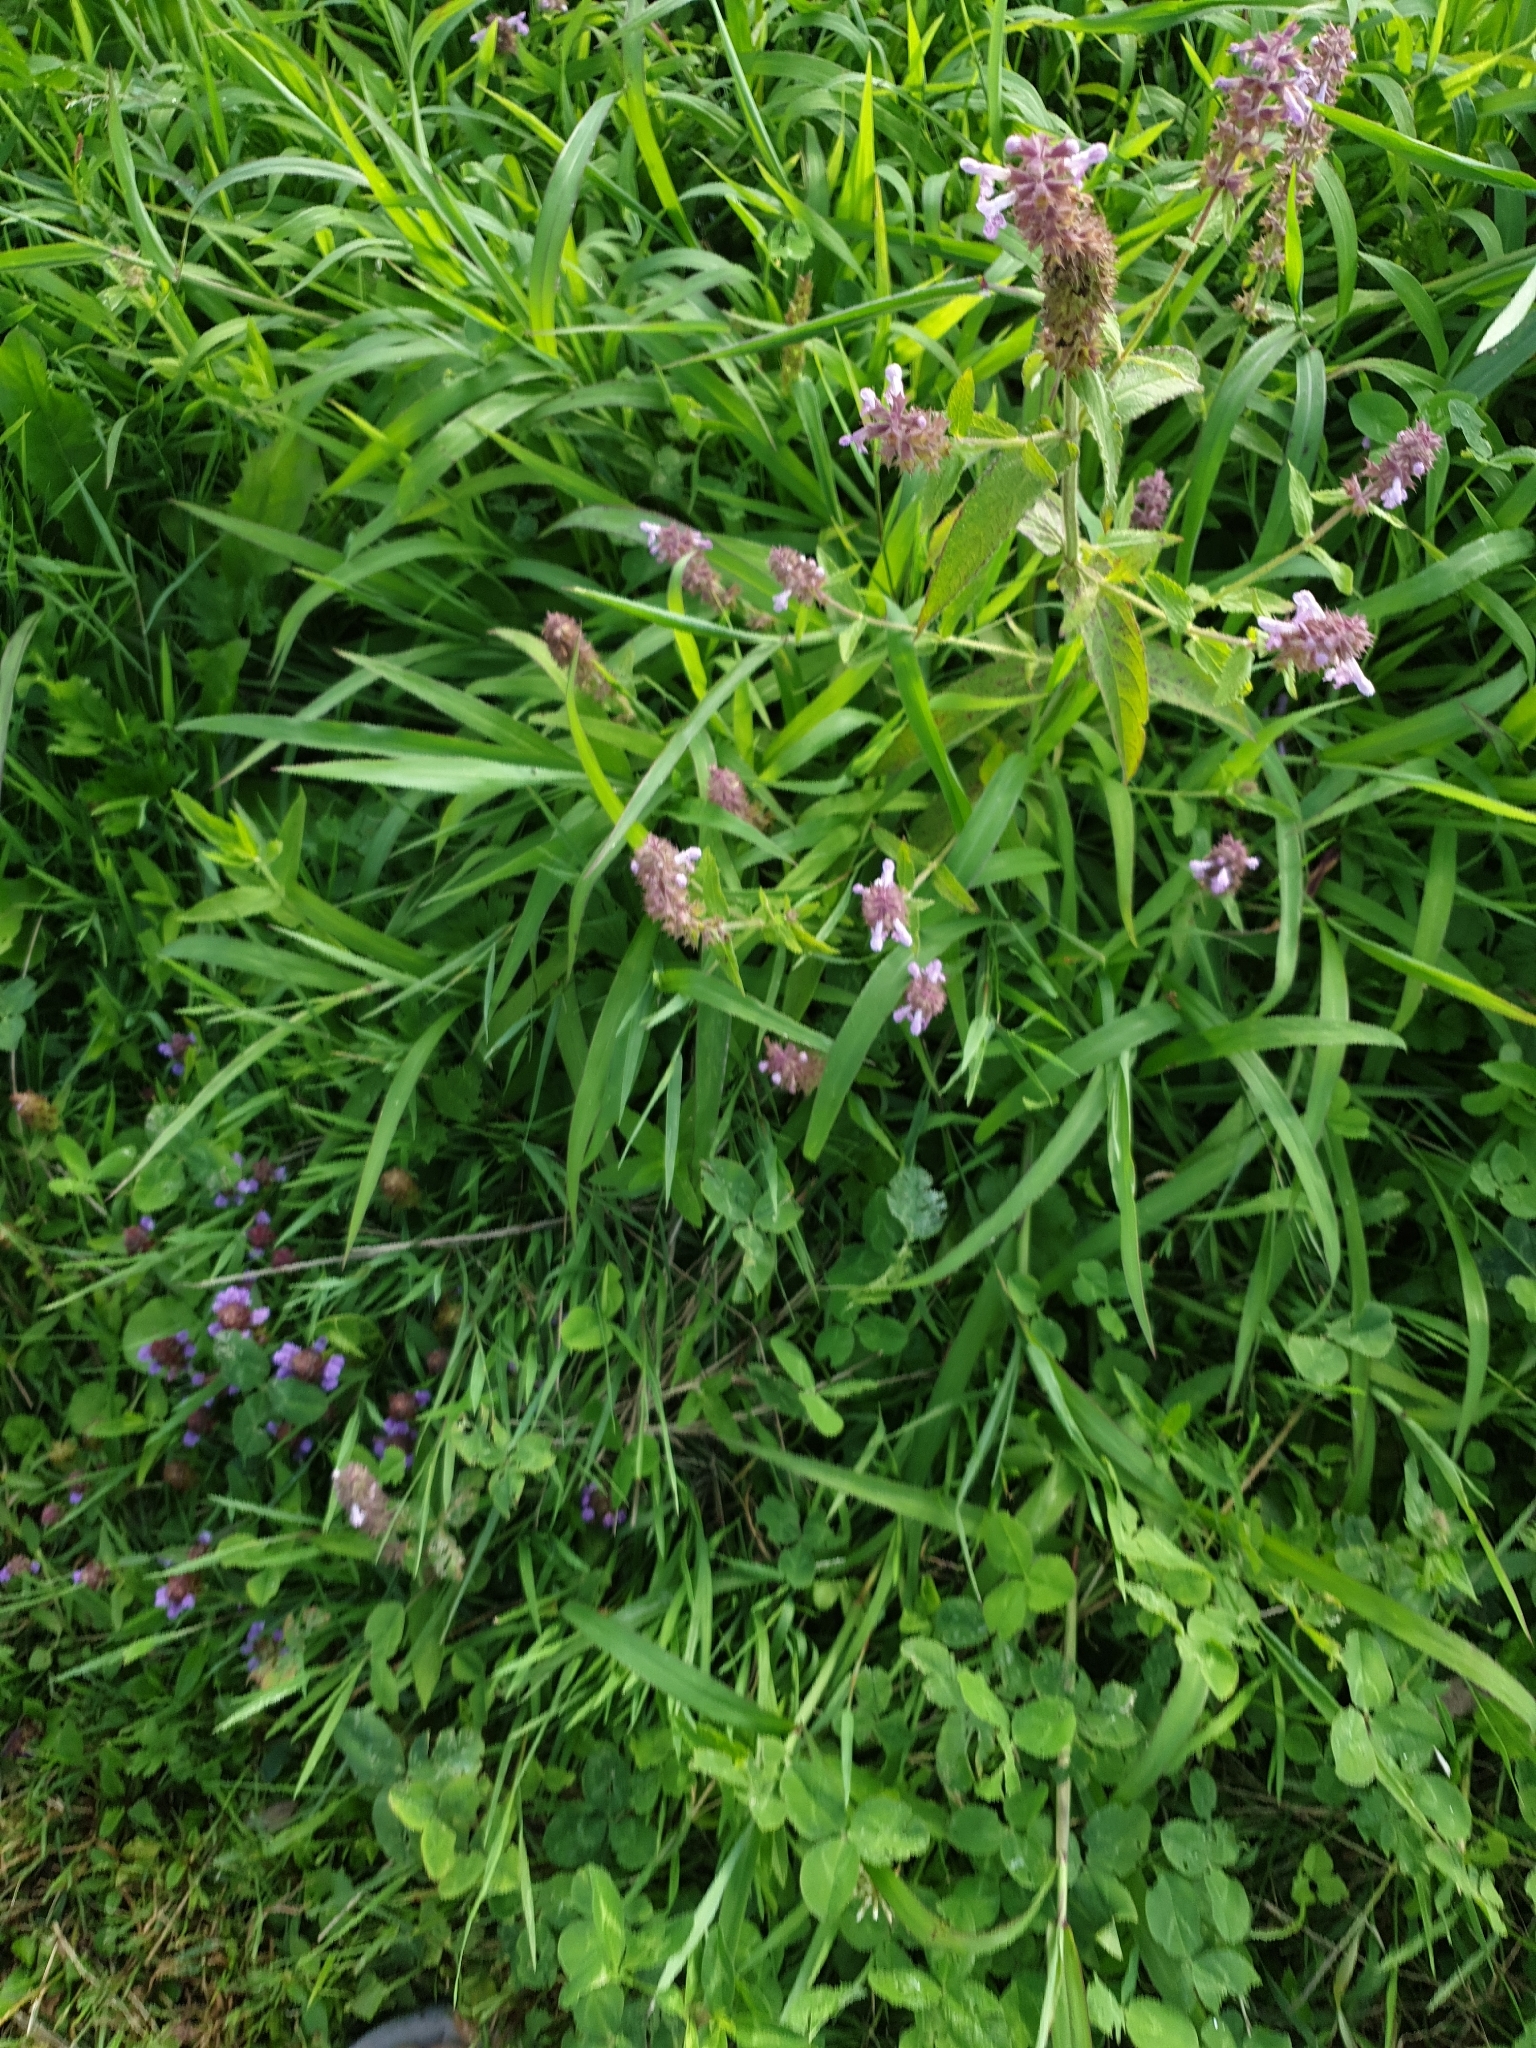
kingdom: Plantae
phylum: Tracheophyta
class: Magnoliopsida
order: Lamiales
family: Lamiaceae
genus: Stachys
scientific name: Stachys palustris
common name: Marsh woundwort
